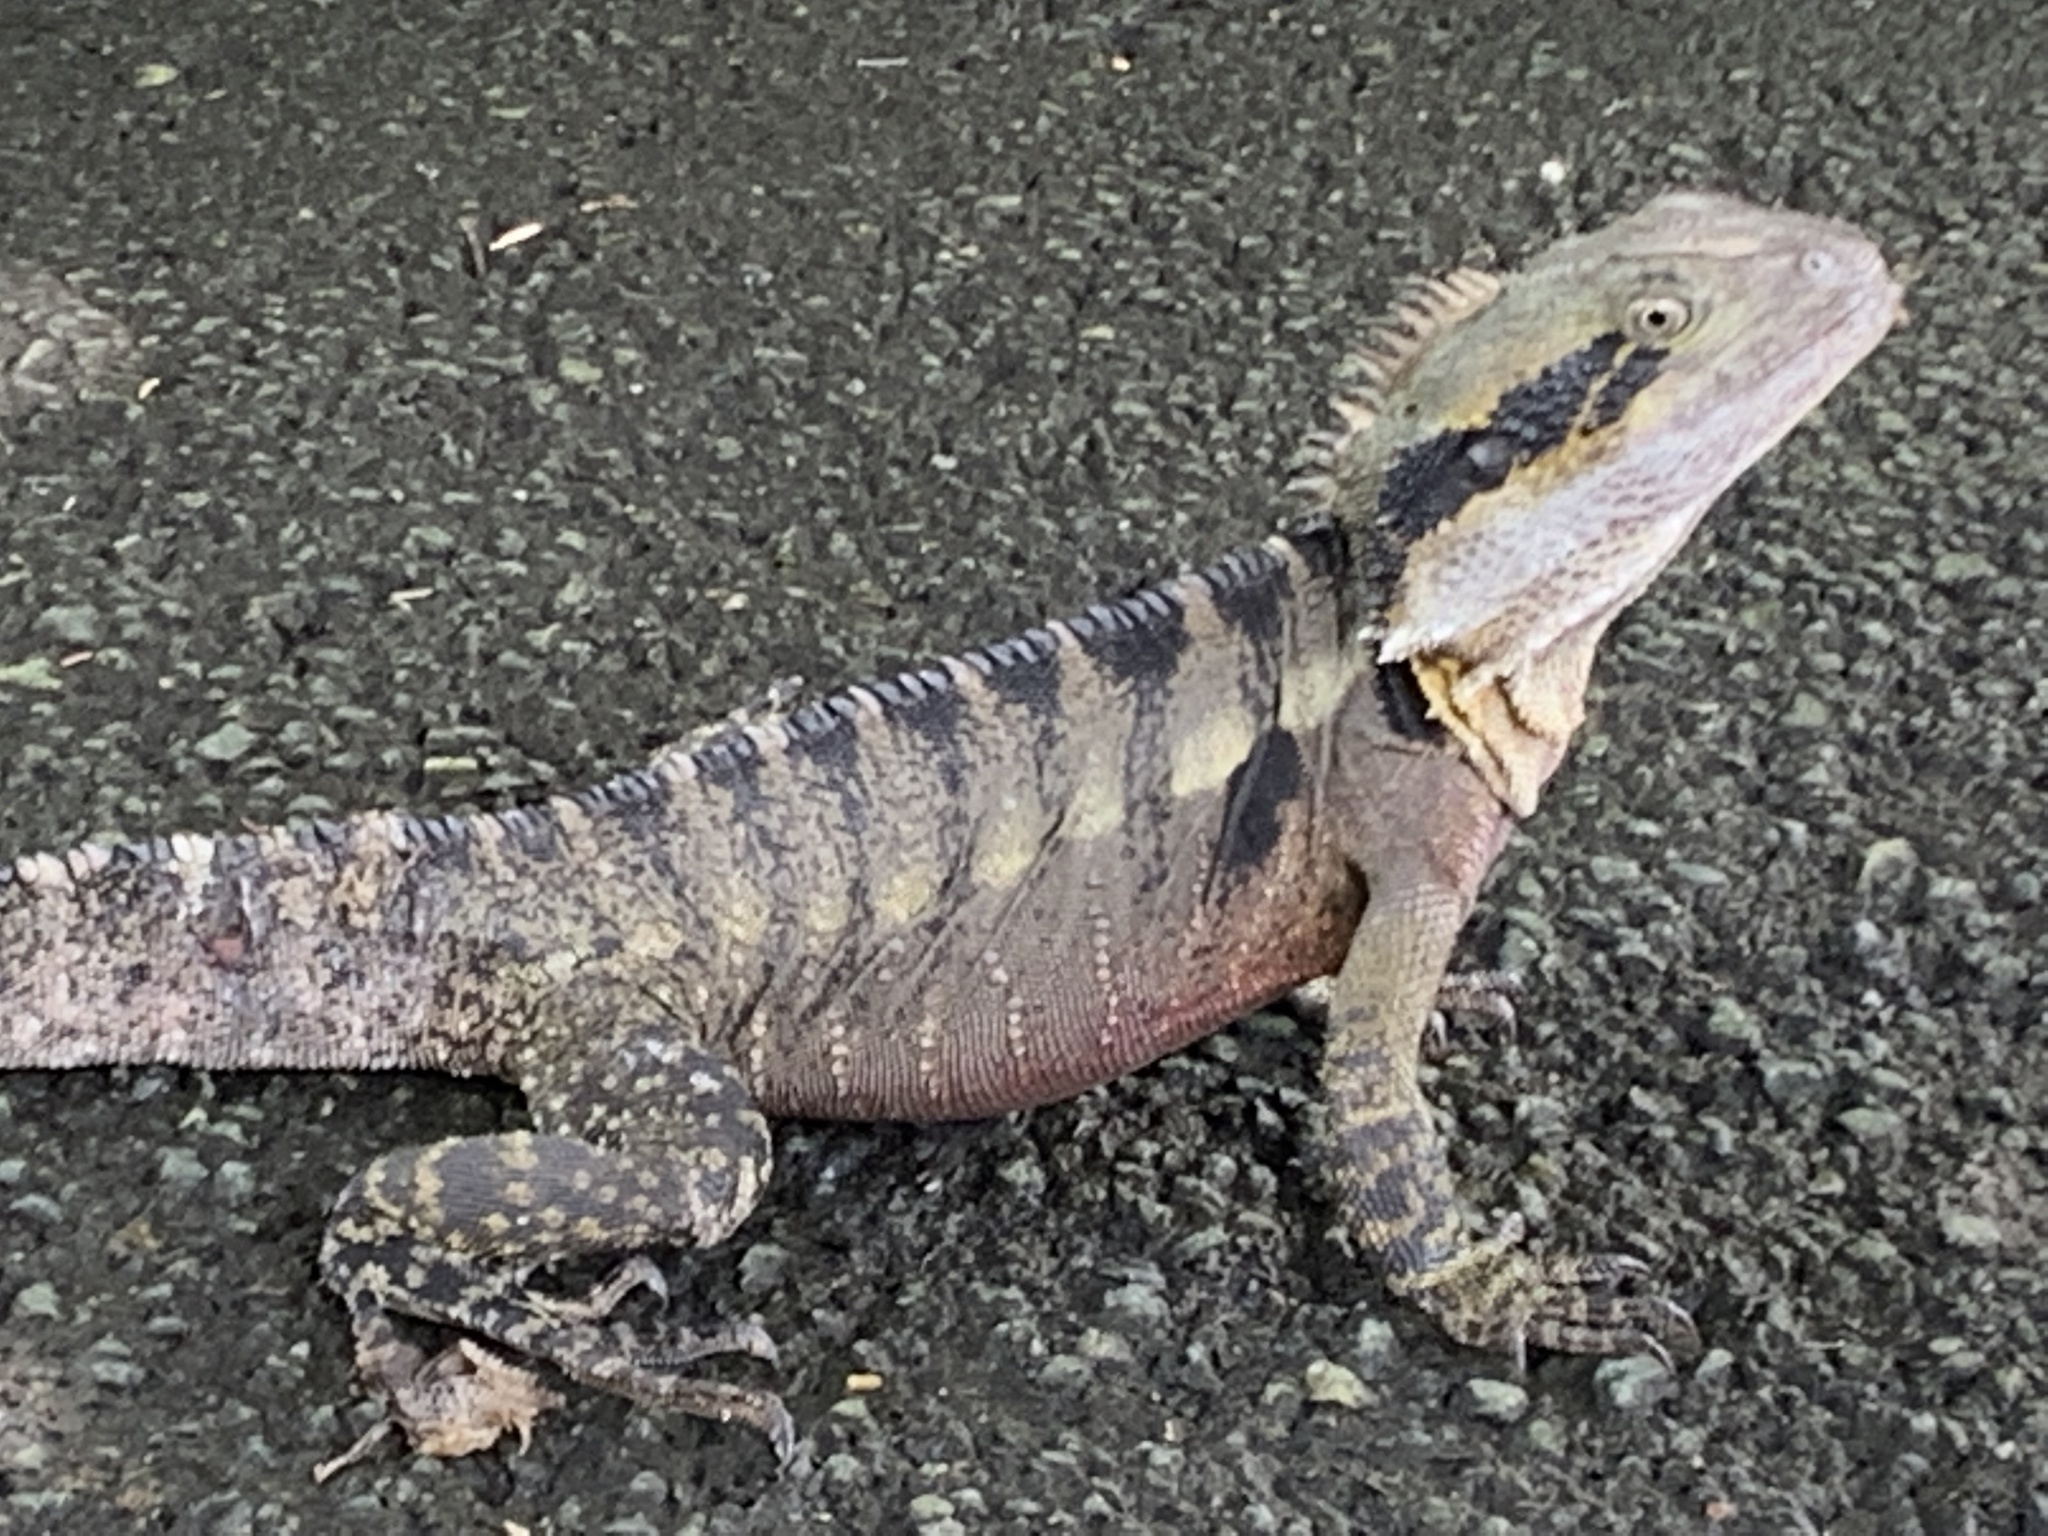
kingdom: Animalia
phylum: Chordata
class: Squamata
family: Agamidae
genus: Intellagama
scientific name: Intellagama lesueurii
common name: Eastern water dragon
